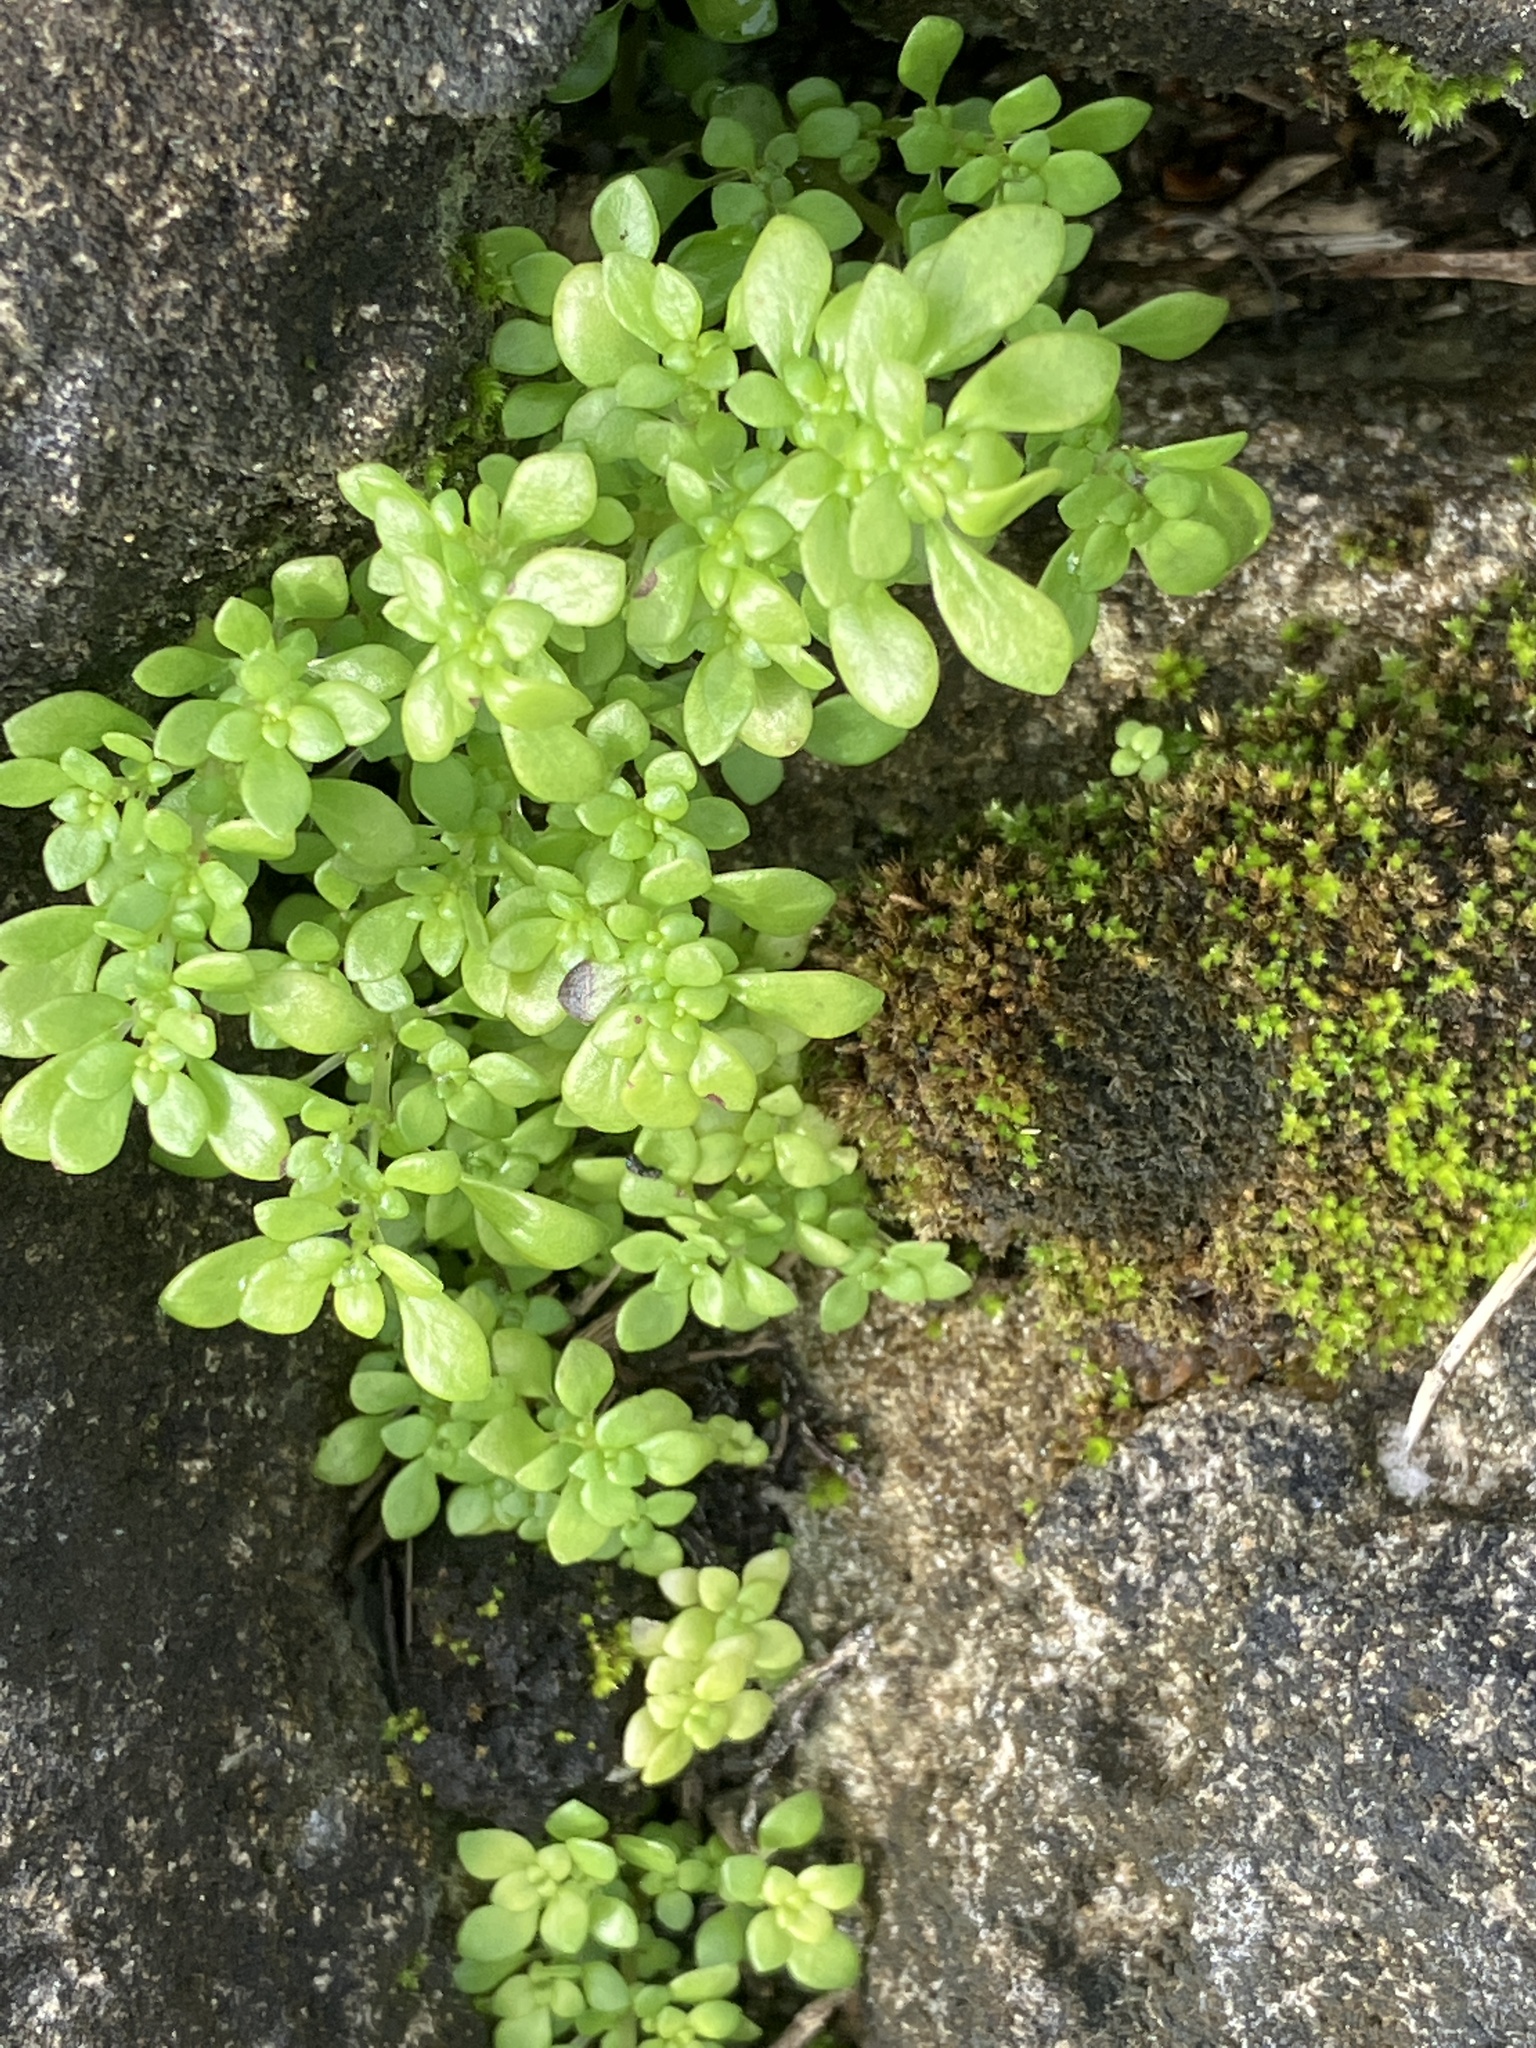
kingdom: Plantae
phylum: Tracheophyta
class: Magnoliopsida
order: Rosales
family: Urticaceae
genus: Pilea
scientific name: Pilea microphylla
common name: Artillery-plant
